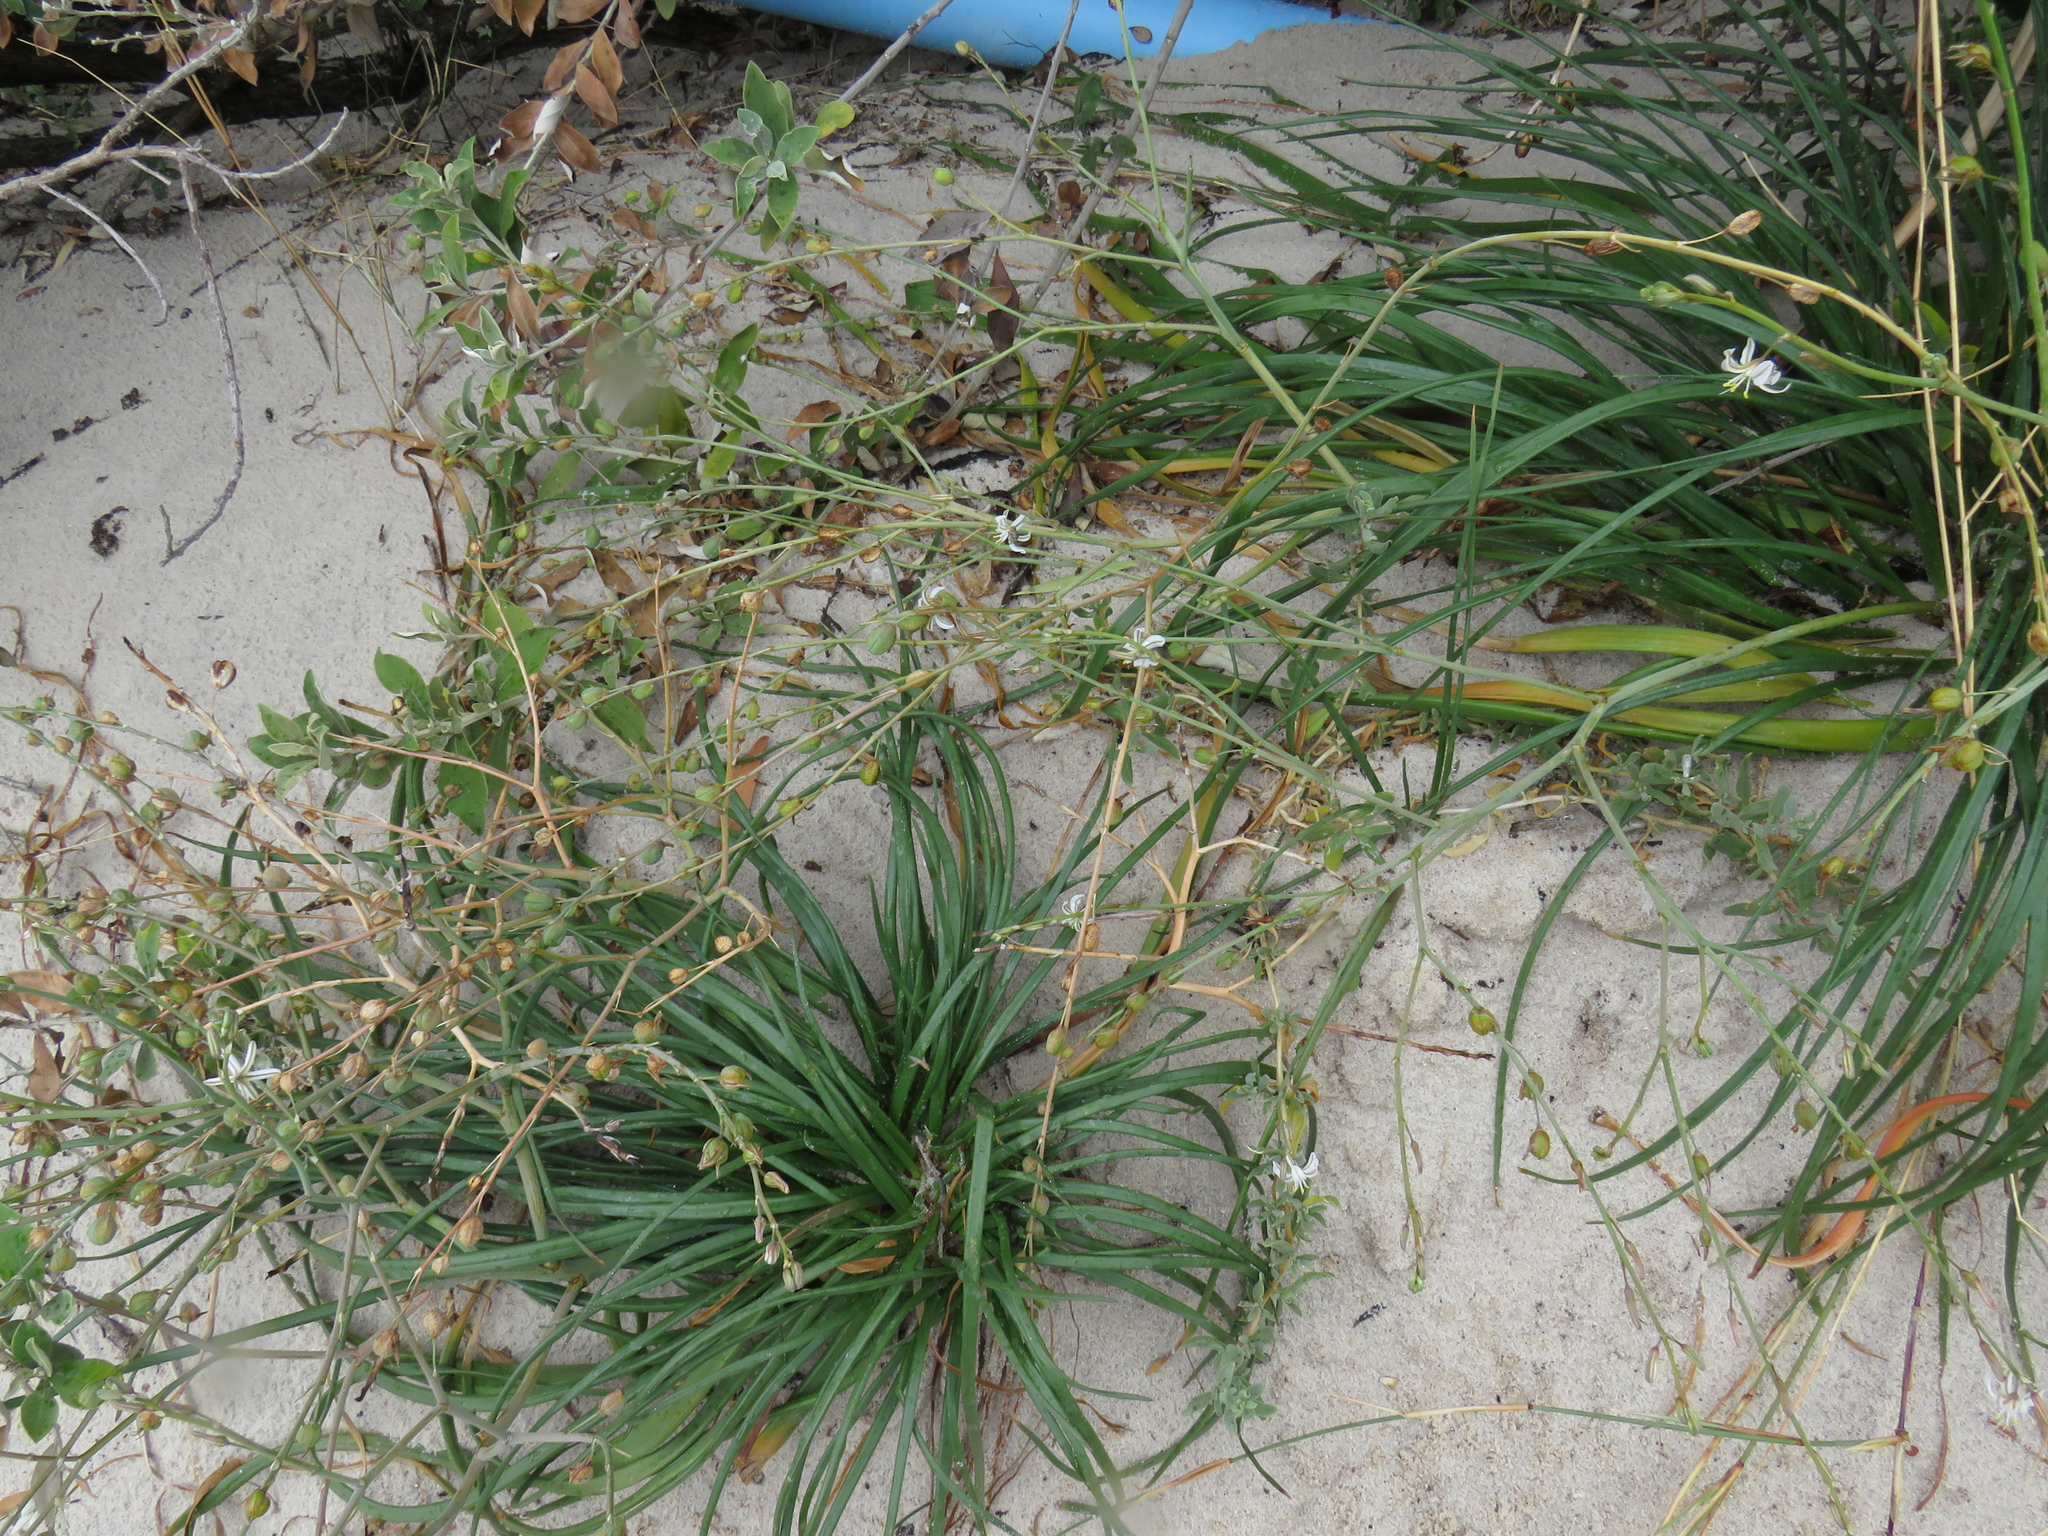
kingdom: Plantae
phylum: Tracheophyta
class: Liliopsida
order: Asparagales
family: Asphodelaceae
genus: Trachyandra
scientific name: Trachyandra divaricata
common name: Dune onionweed
